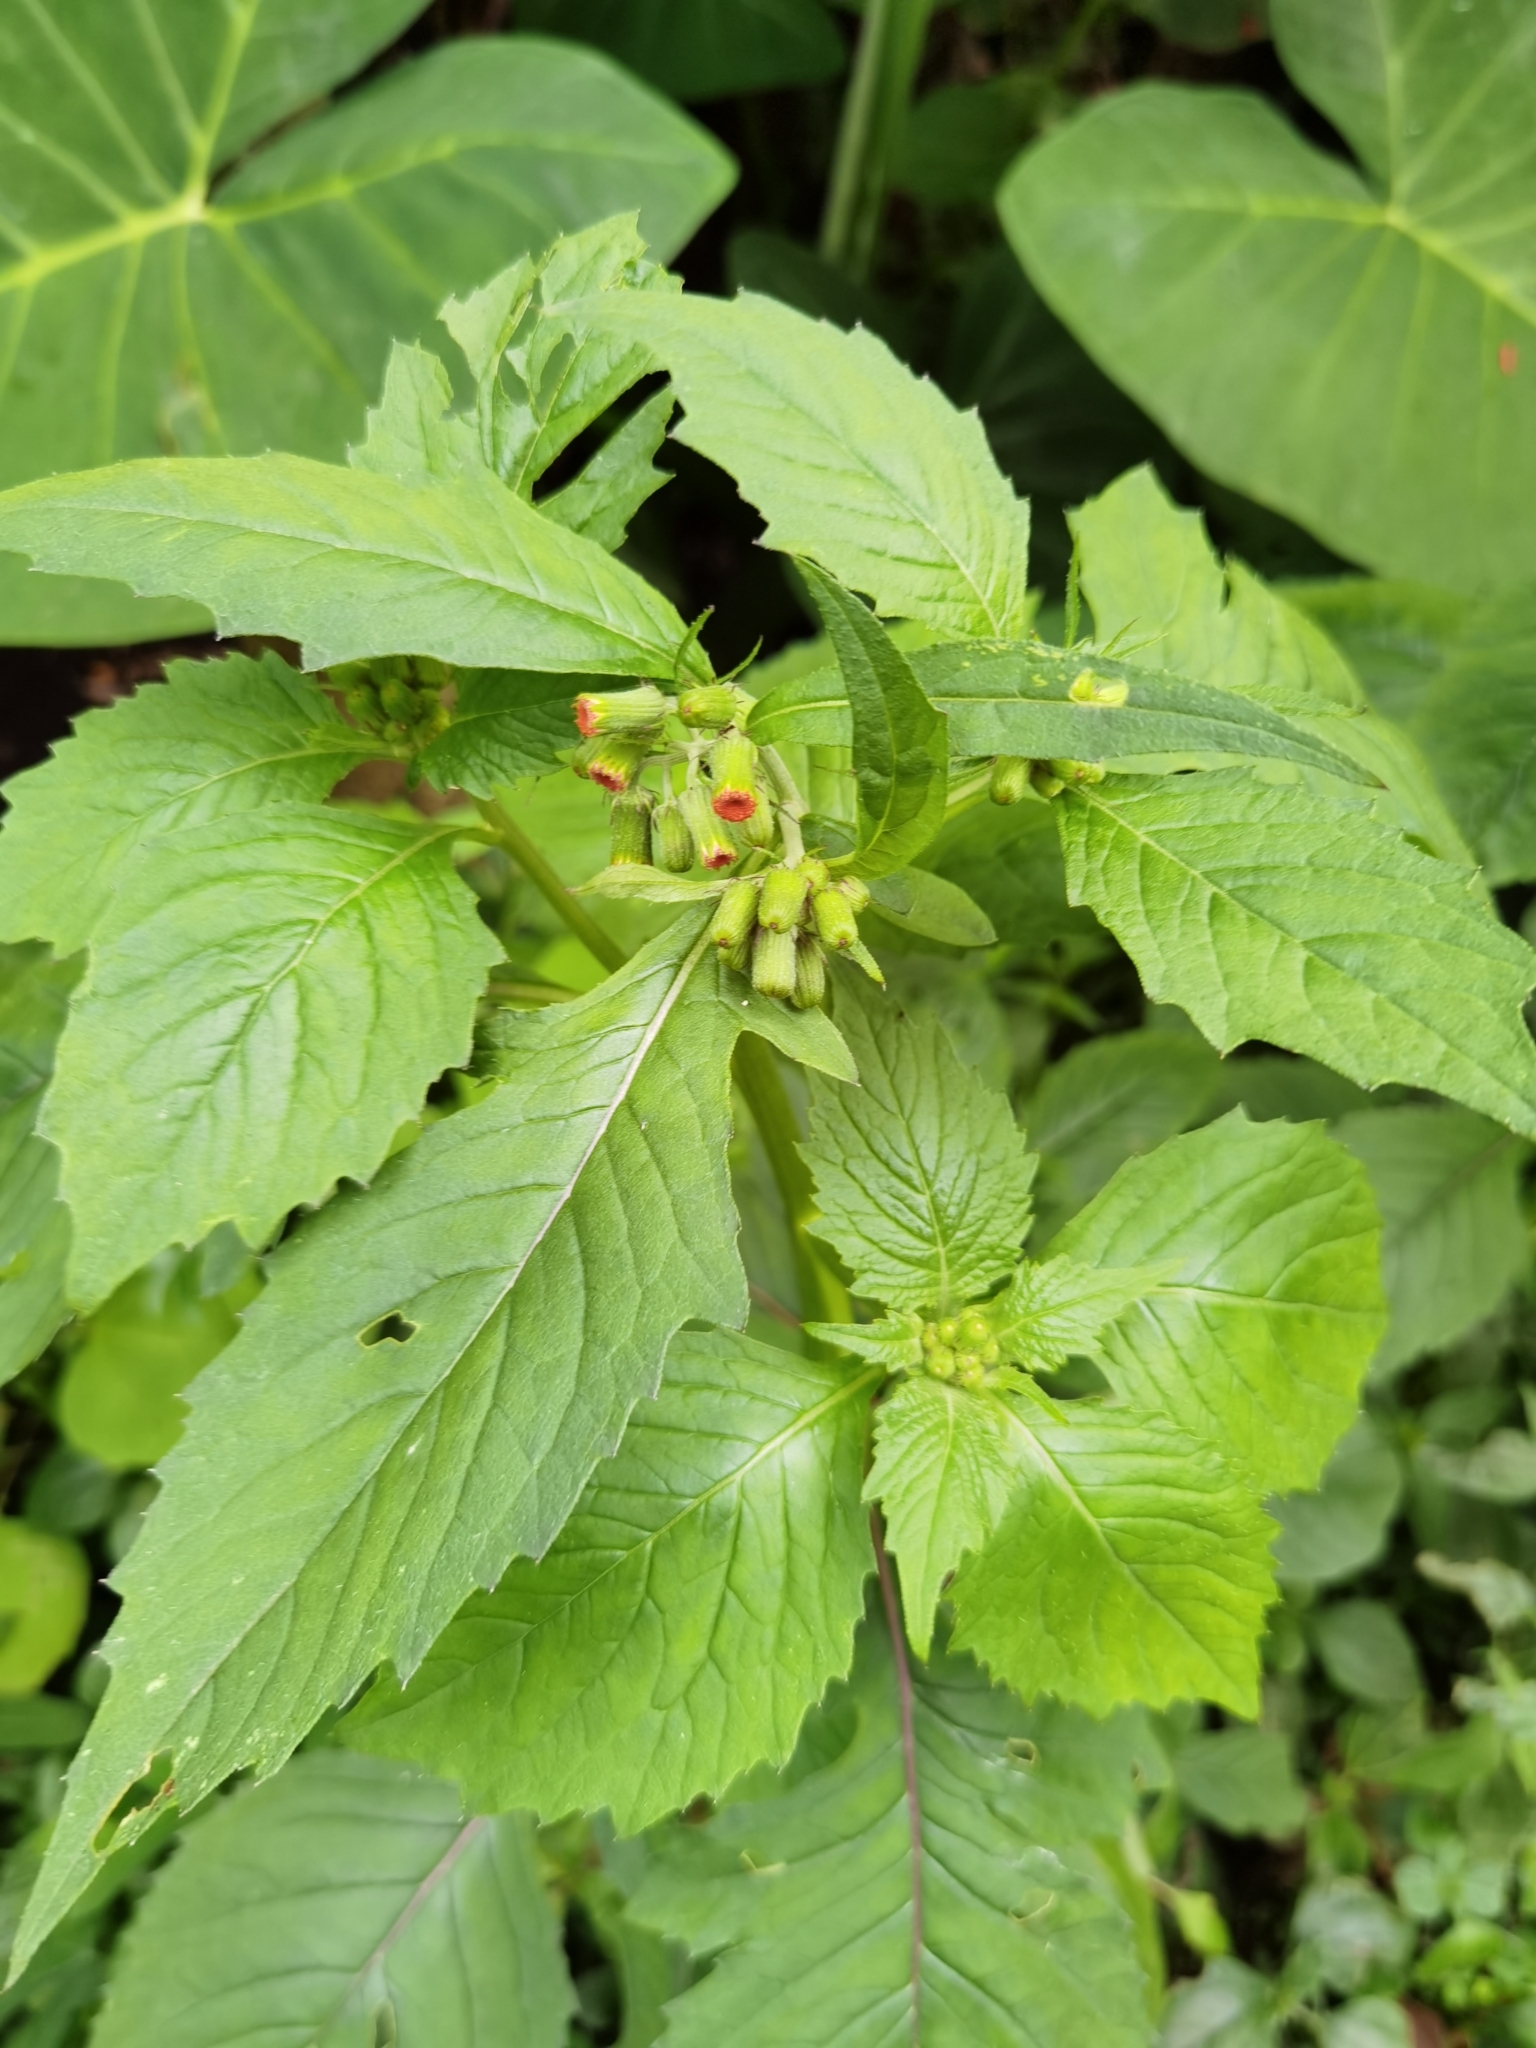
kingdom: Plantae
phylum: Tracheophyta
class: Magnoliopsida
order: Asterales
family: Asteraceae
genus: Crassocephalum
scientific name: Crassocephalum crepidioides
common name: Redflower ragleaf
